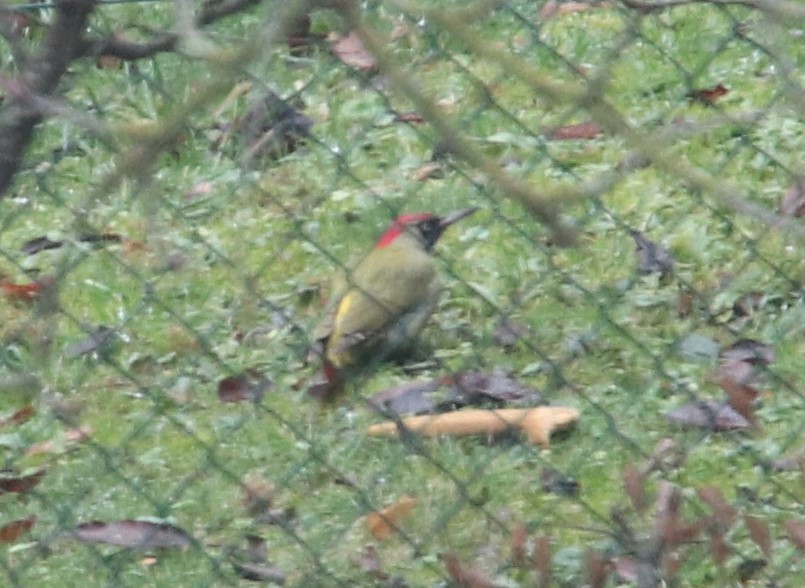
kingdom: Animalia
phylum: Chordata
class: Aves
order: Piciformes
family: Picidae
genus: Picus
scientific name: Picus viridis
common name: European green woodpecker
